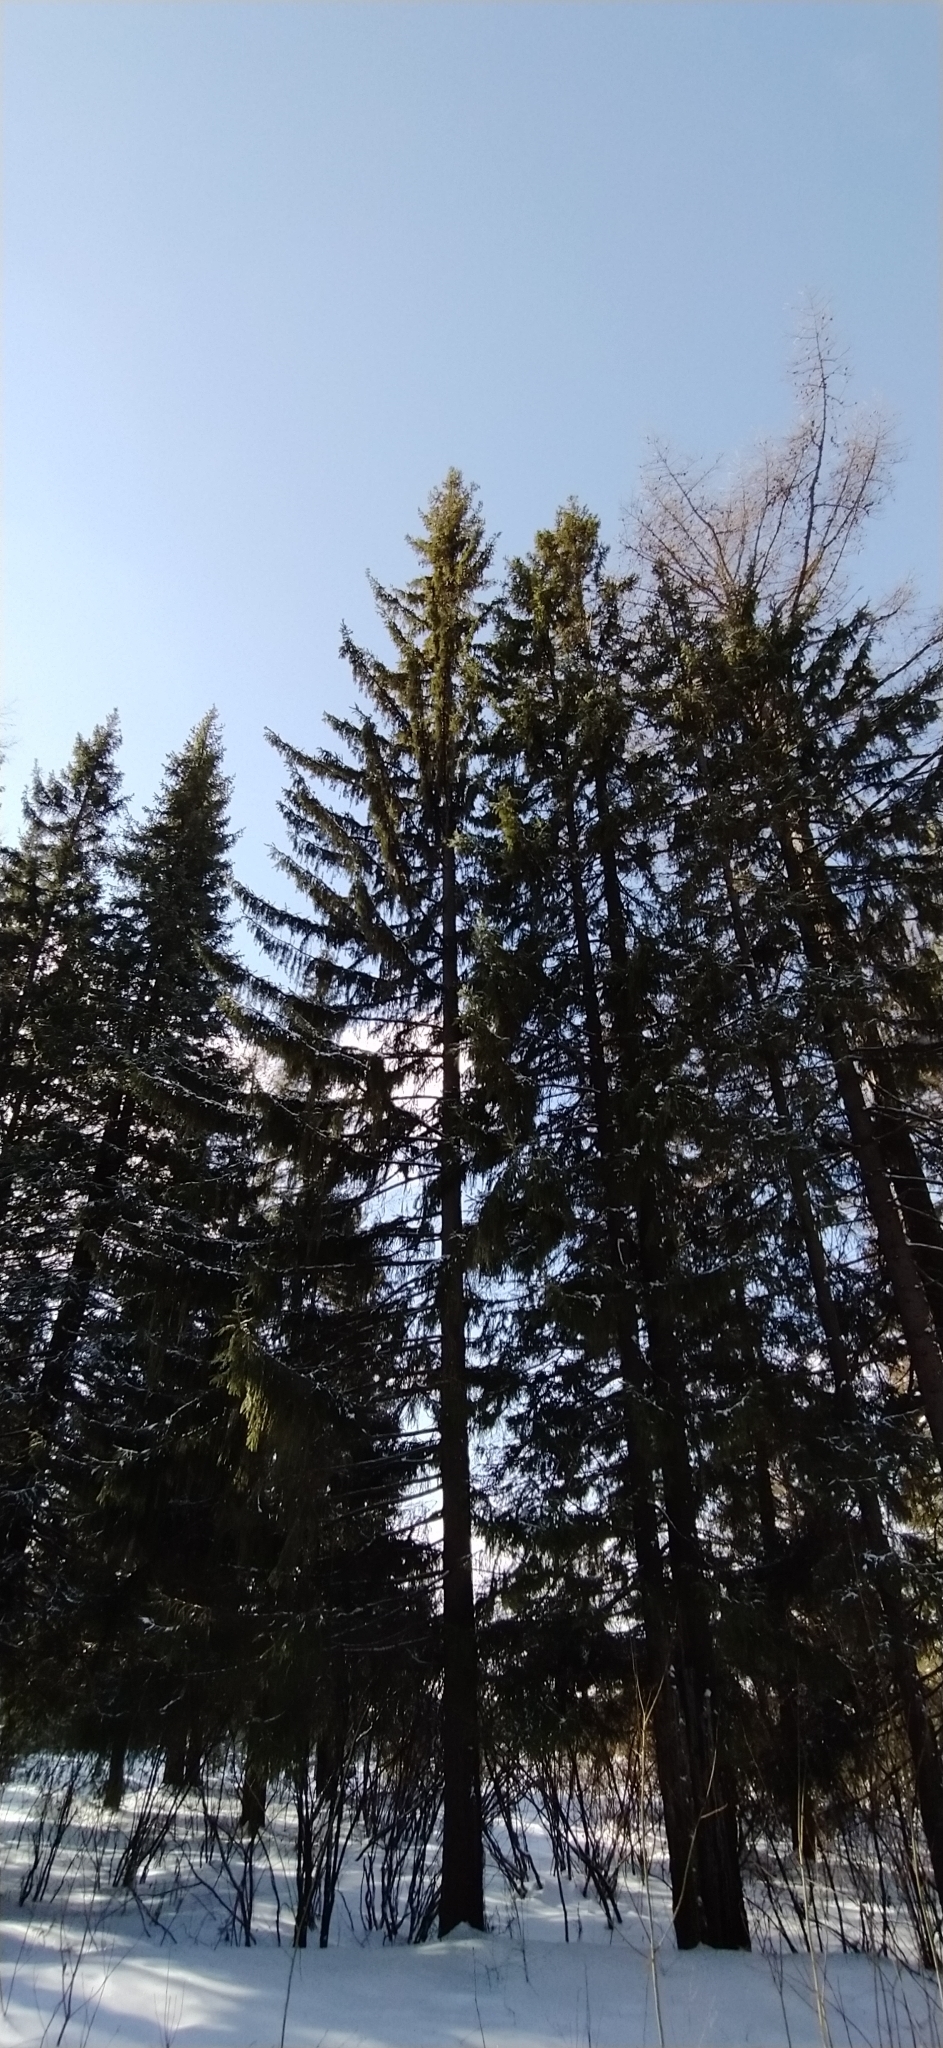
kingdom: Plantae
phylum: Tracheophyta
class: Pinopsida
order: Pinales
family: Pinaceae
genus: Picea
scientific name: Picea obovata
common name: Siberian spruce
